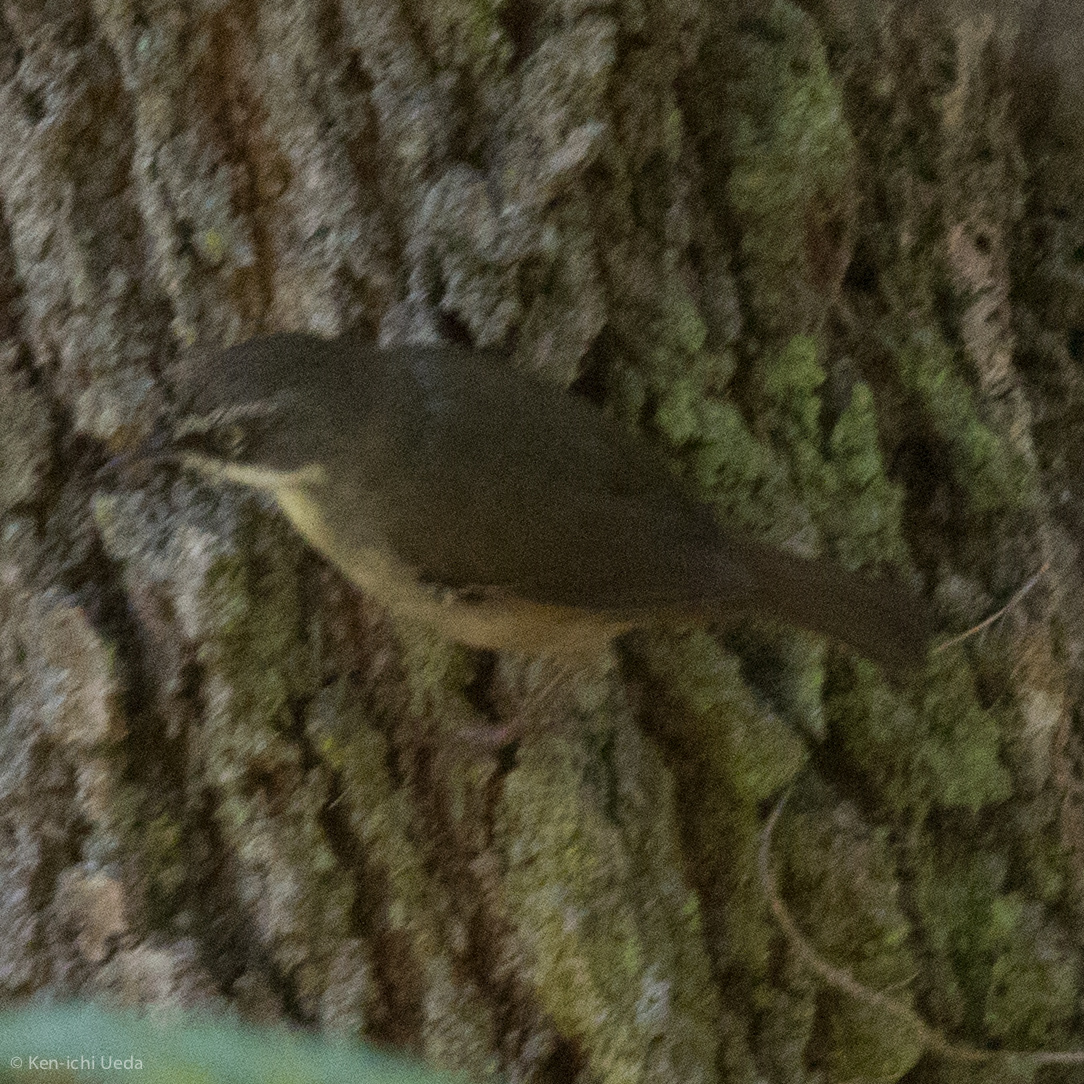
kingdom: Animalia
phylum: Chordata
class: Aves
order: Passeriformes
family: Acanthizidae
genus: Sericornis
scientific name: Sericornis frontalis
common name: White-browed scrubwren
